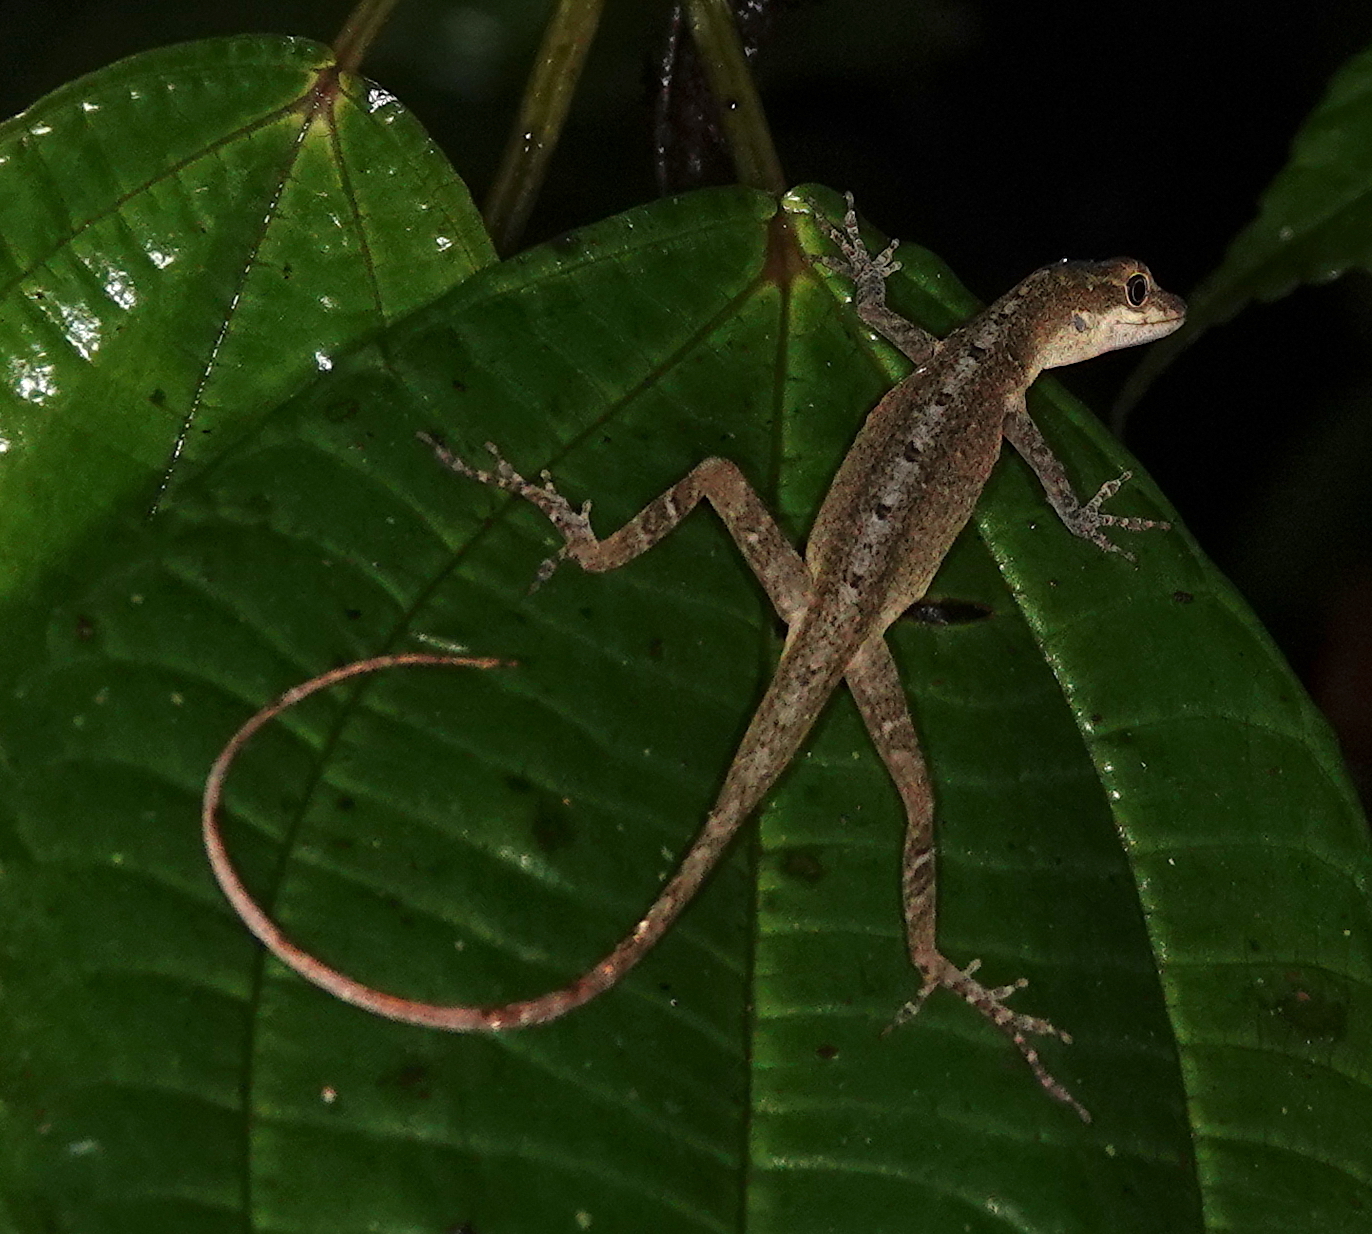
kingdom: Animalia
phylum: Chordata
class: Squamata
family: Dactyloidae
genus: Anolis
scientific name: Anolis antonii
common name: Anton's anole
